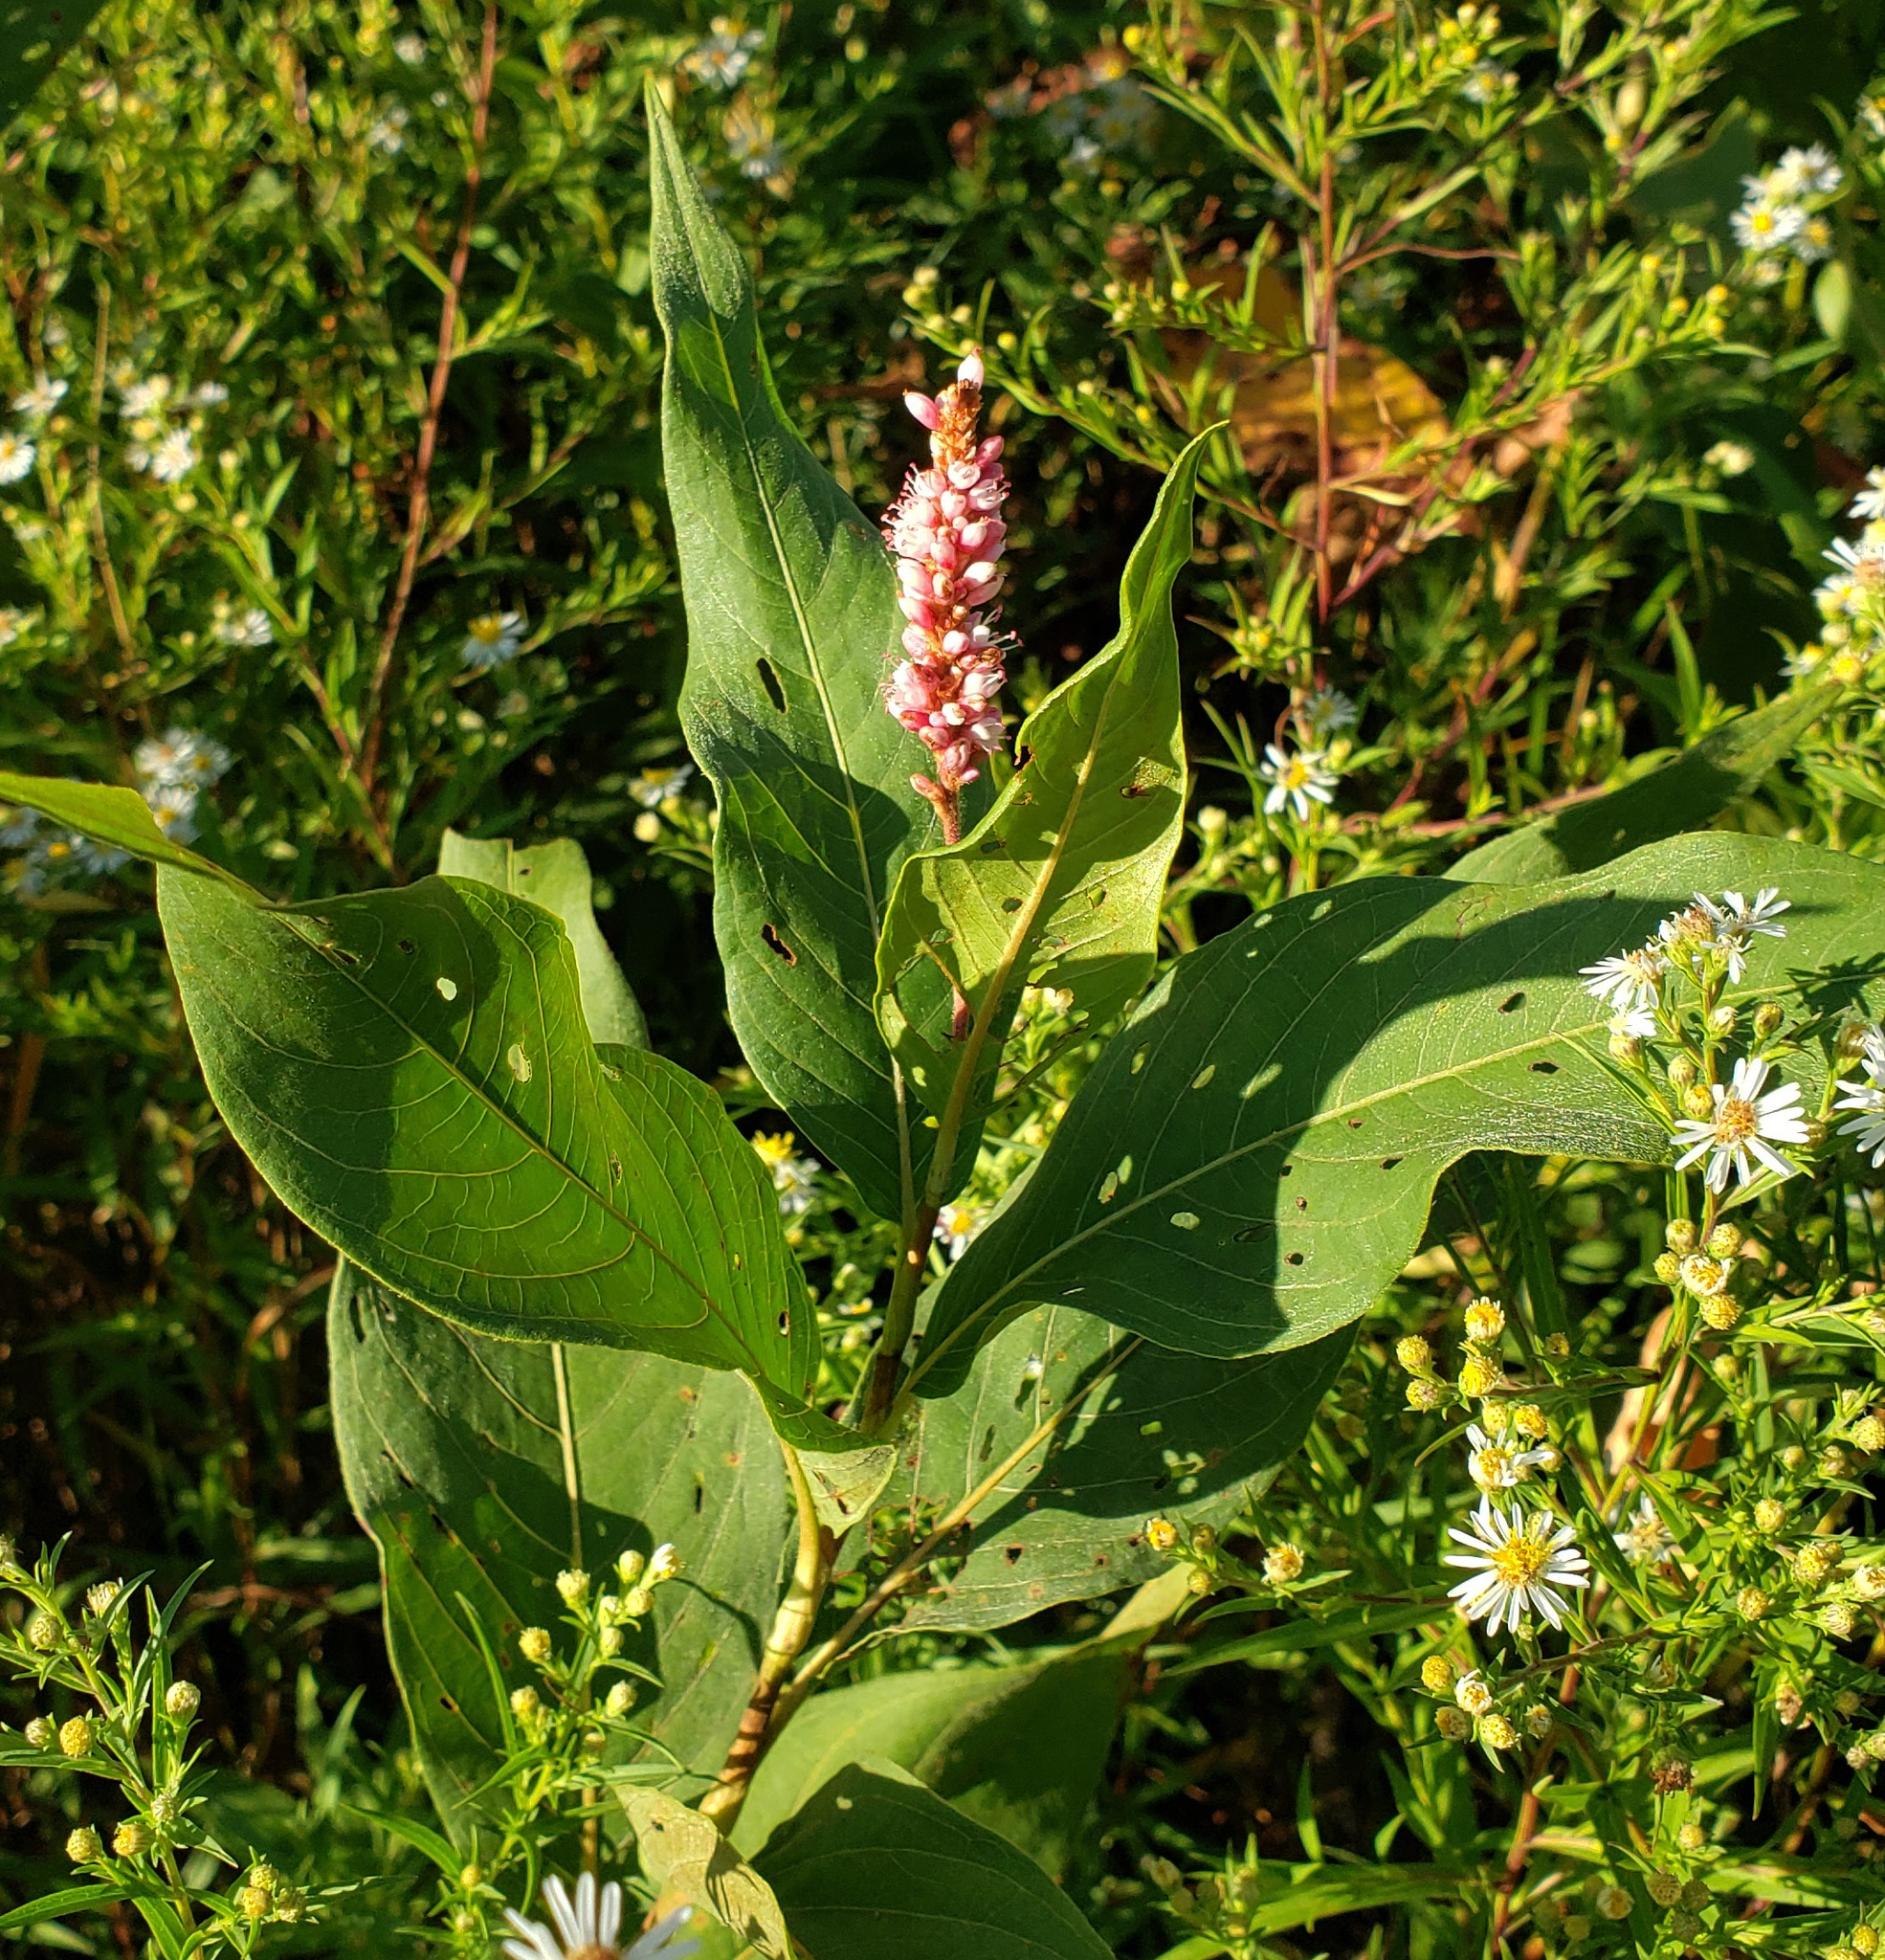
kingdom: Plantae
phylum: Tracheophyta
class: Magnoliopsida
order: Caryophyllales
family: Polygonaceae
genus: Persicaria
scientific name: Persicaria amphibia
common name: Amphibious bistort
